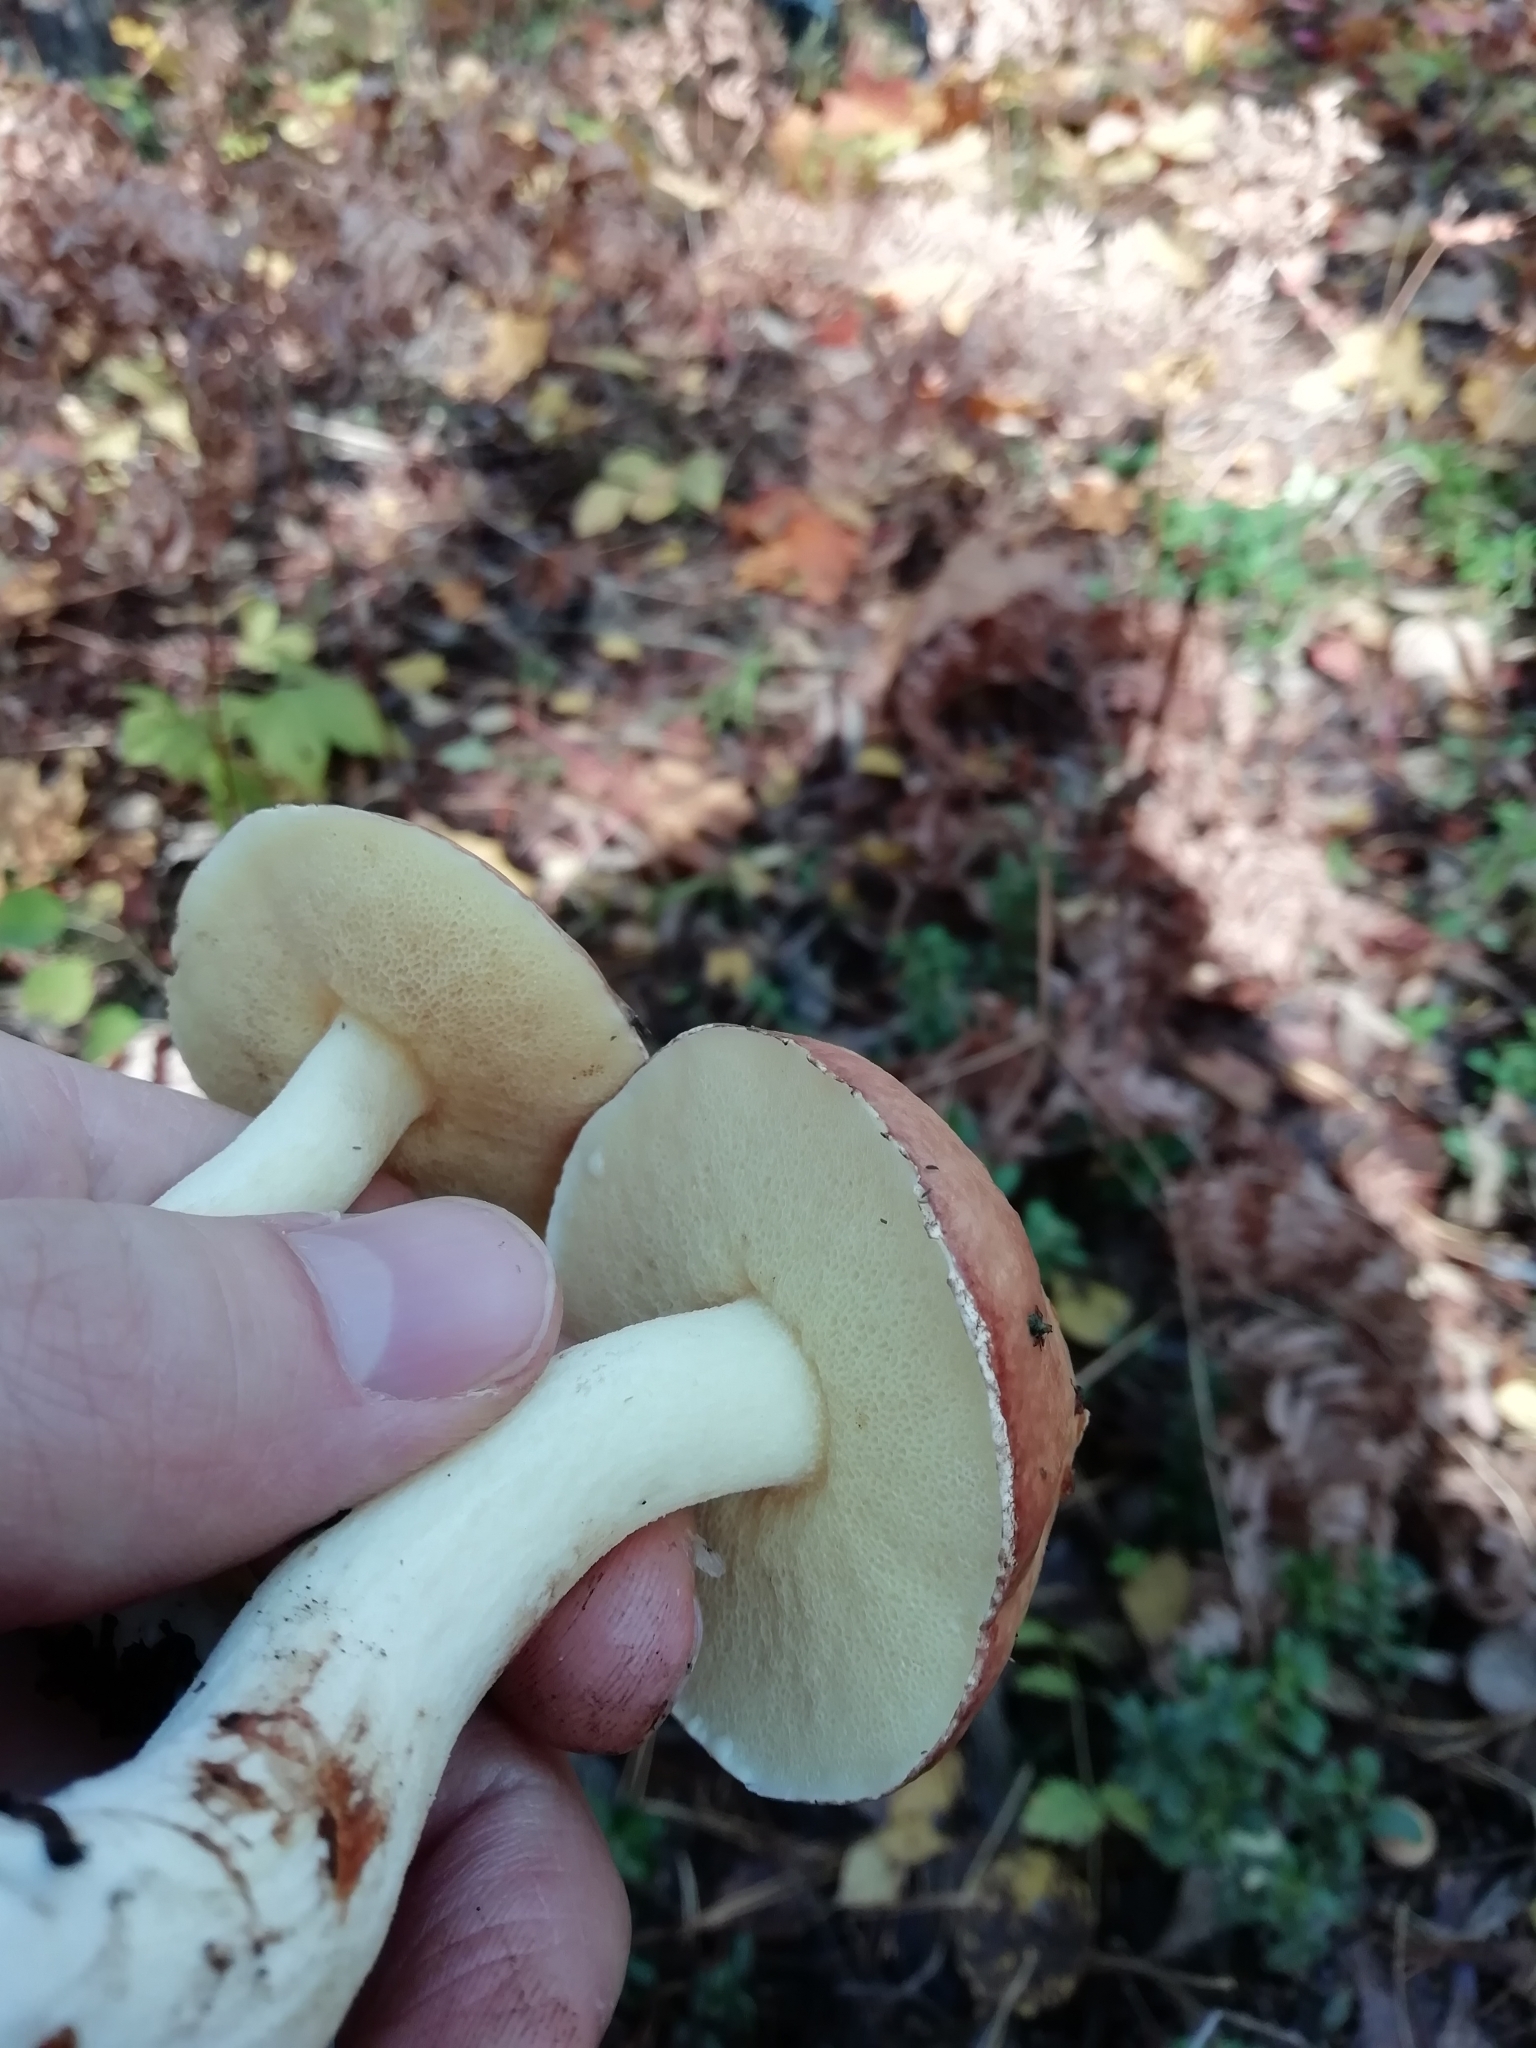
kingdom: Fungi
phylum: Basidiomycota
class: Agaricomycetes
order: Boletales
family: Suillaceae
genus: Suillus
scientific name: Suillus granulatus
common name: Weeping bolete
